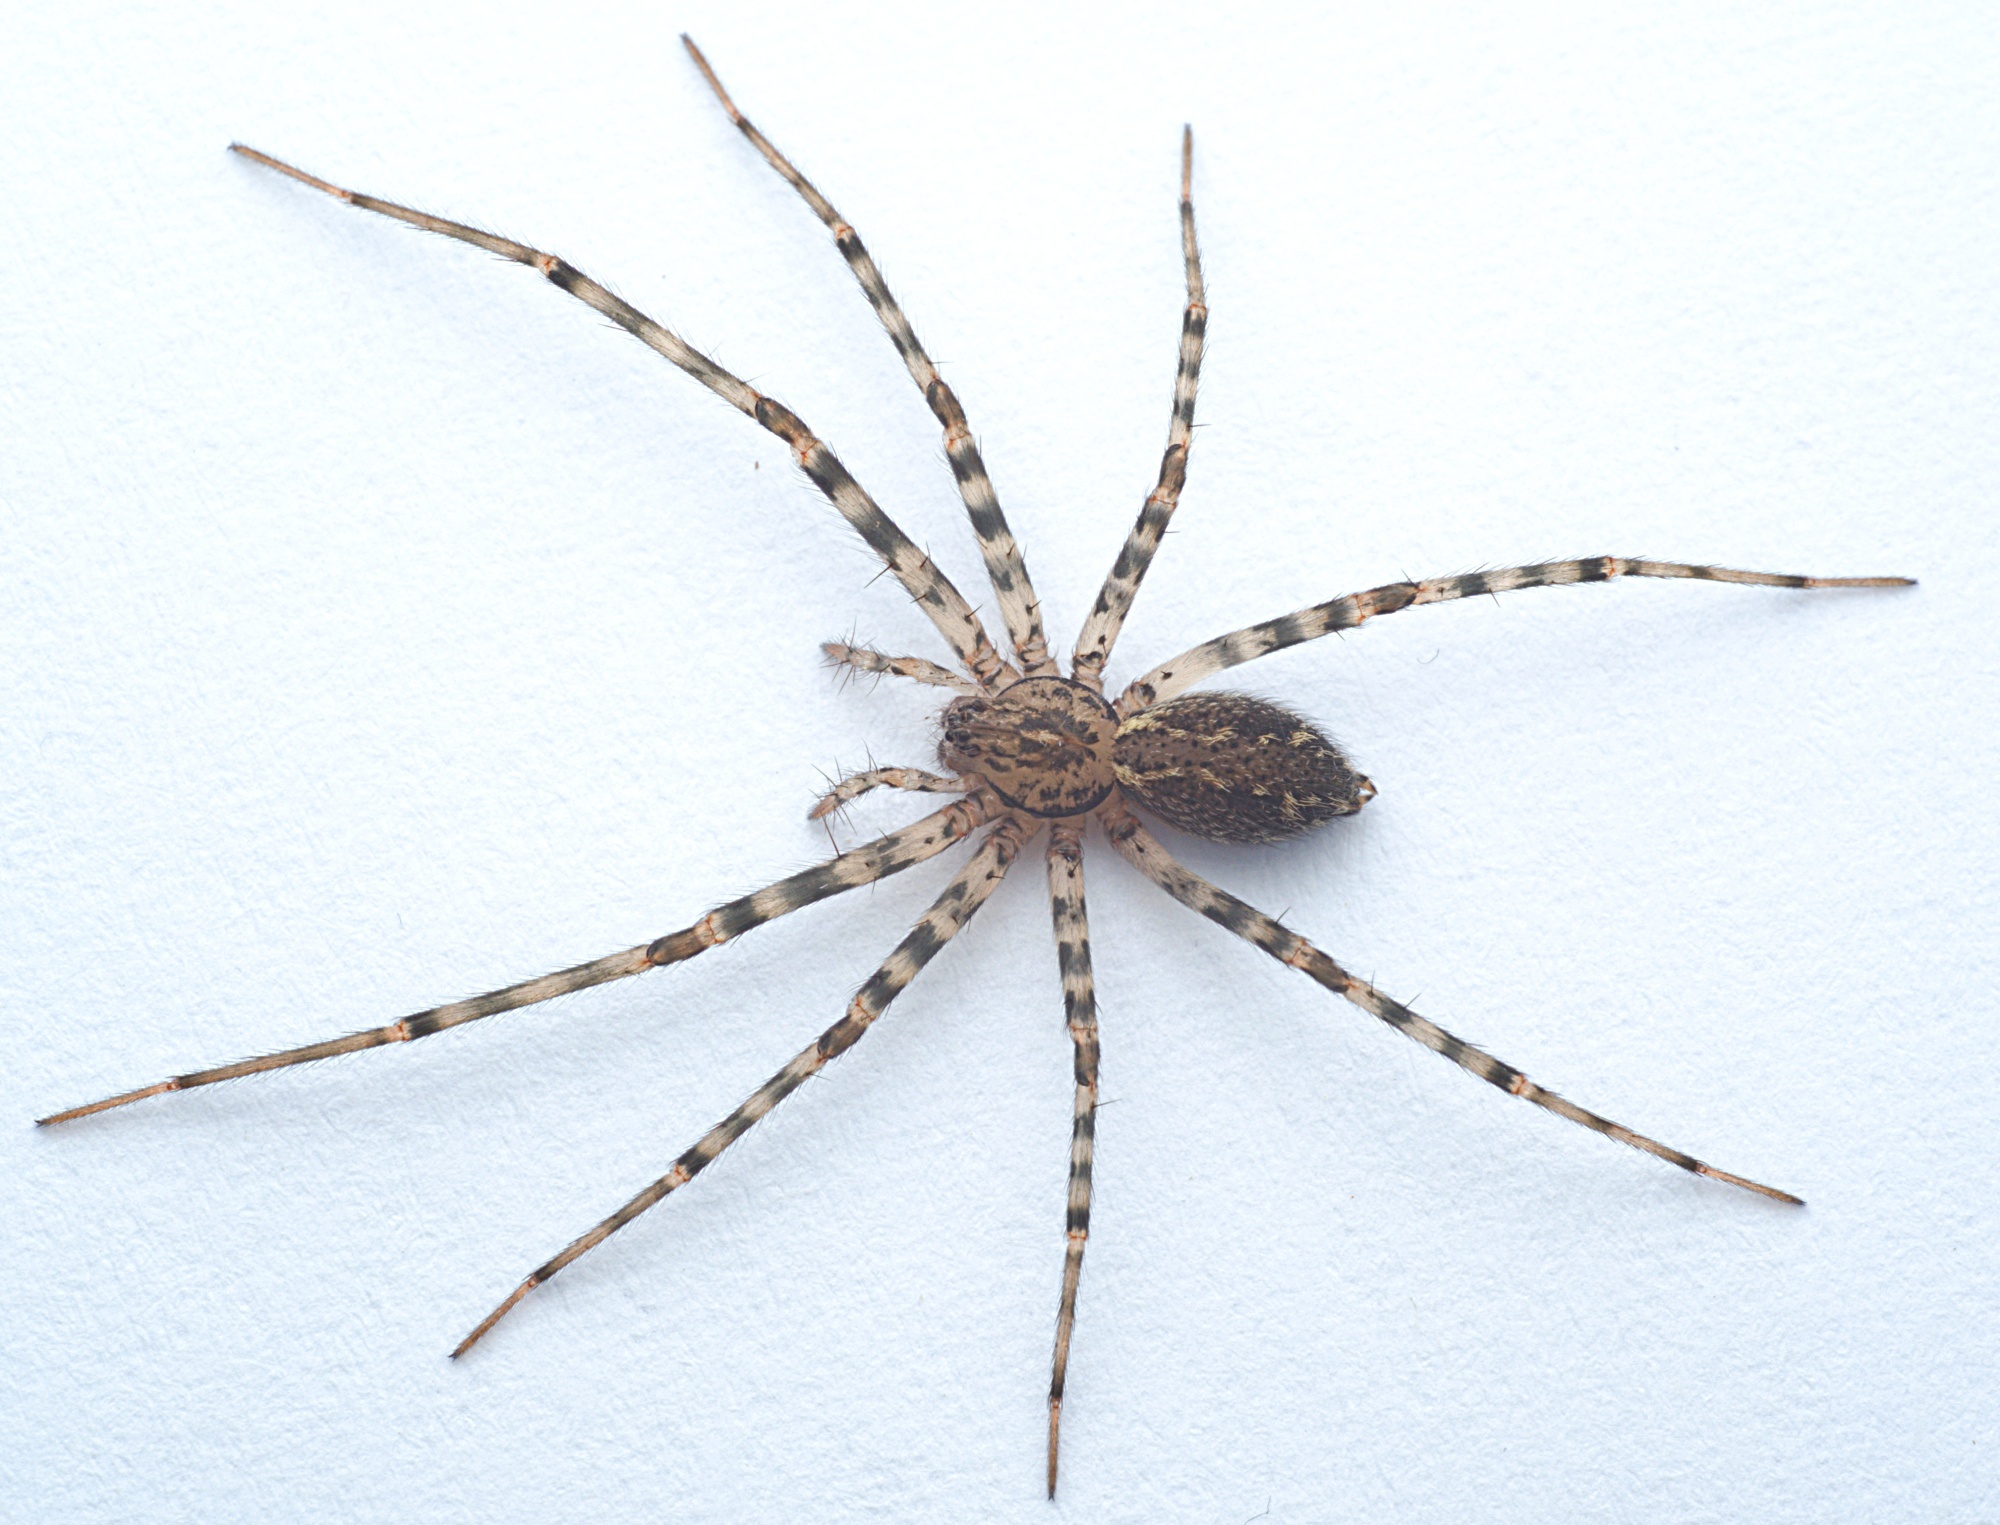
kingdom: Animalia
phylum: Arthropoda
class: Arachnida
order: Araneae
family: Stiphidiidae
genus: Stiphidion
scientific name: Stiphidion facetum
